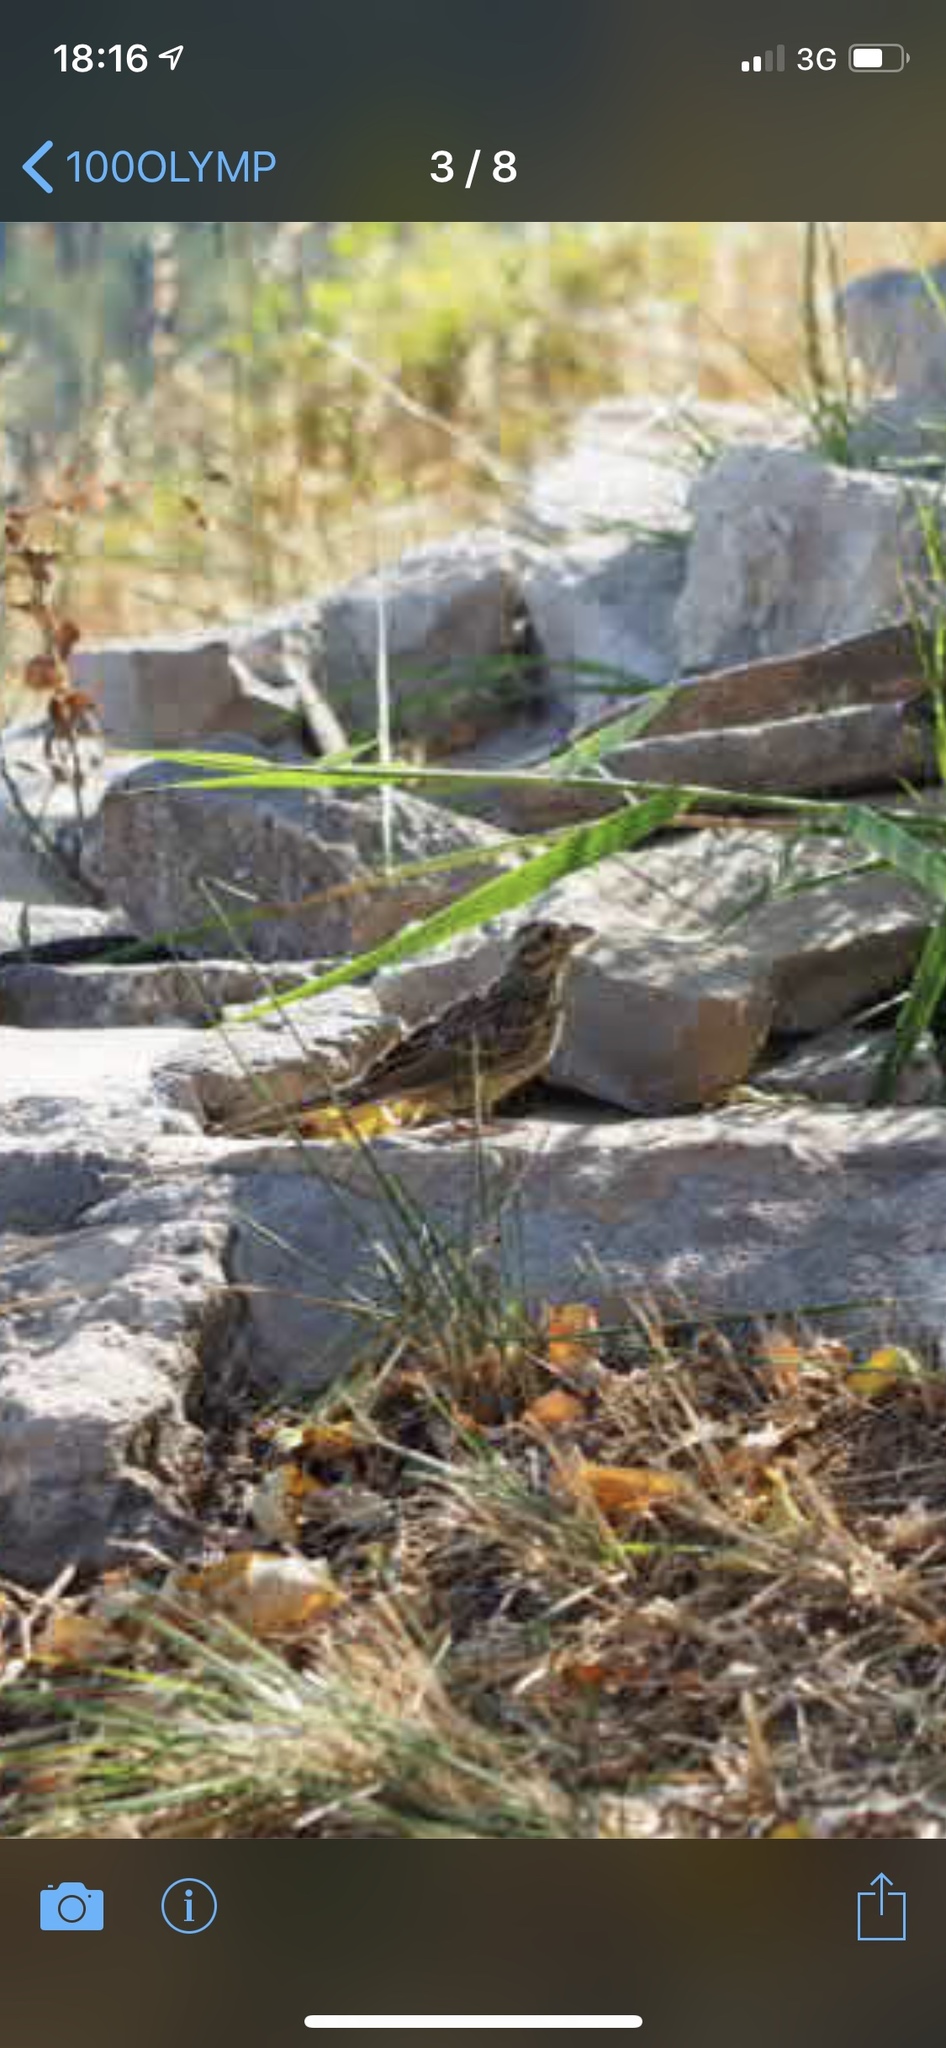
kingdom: Animalia
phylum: Chordata
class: Aves
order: Passeriformes
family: Emberizidae
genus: Emberiza
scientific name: Emberiza cirlus
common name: Cirl bunting
